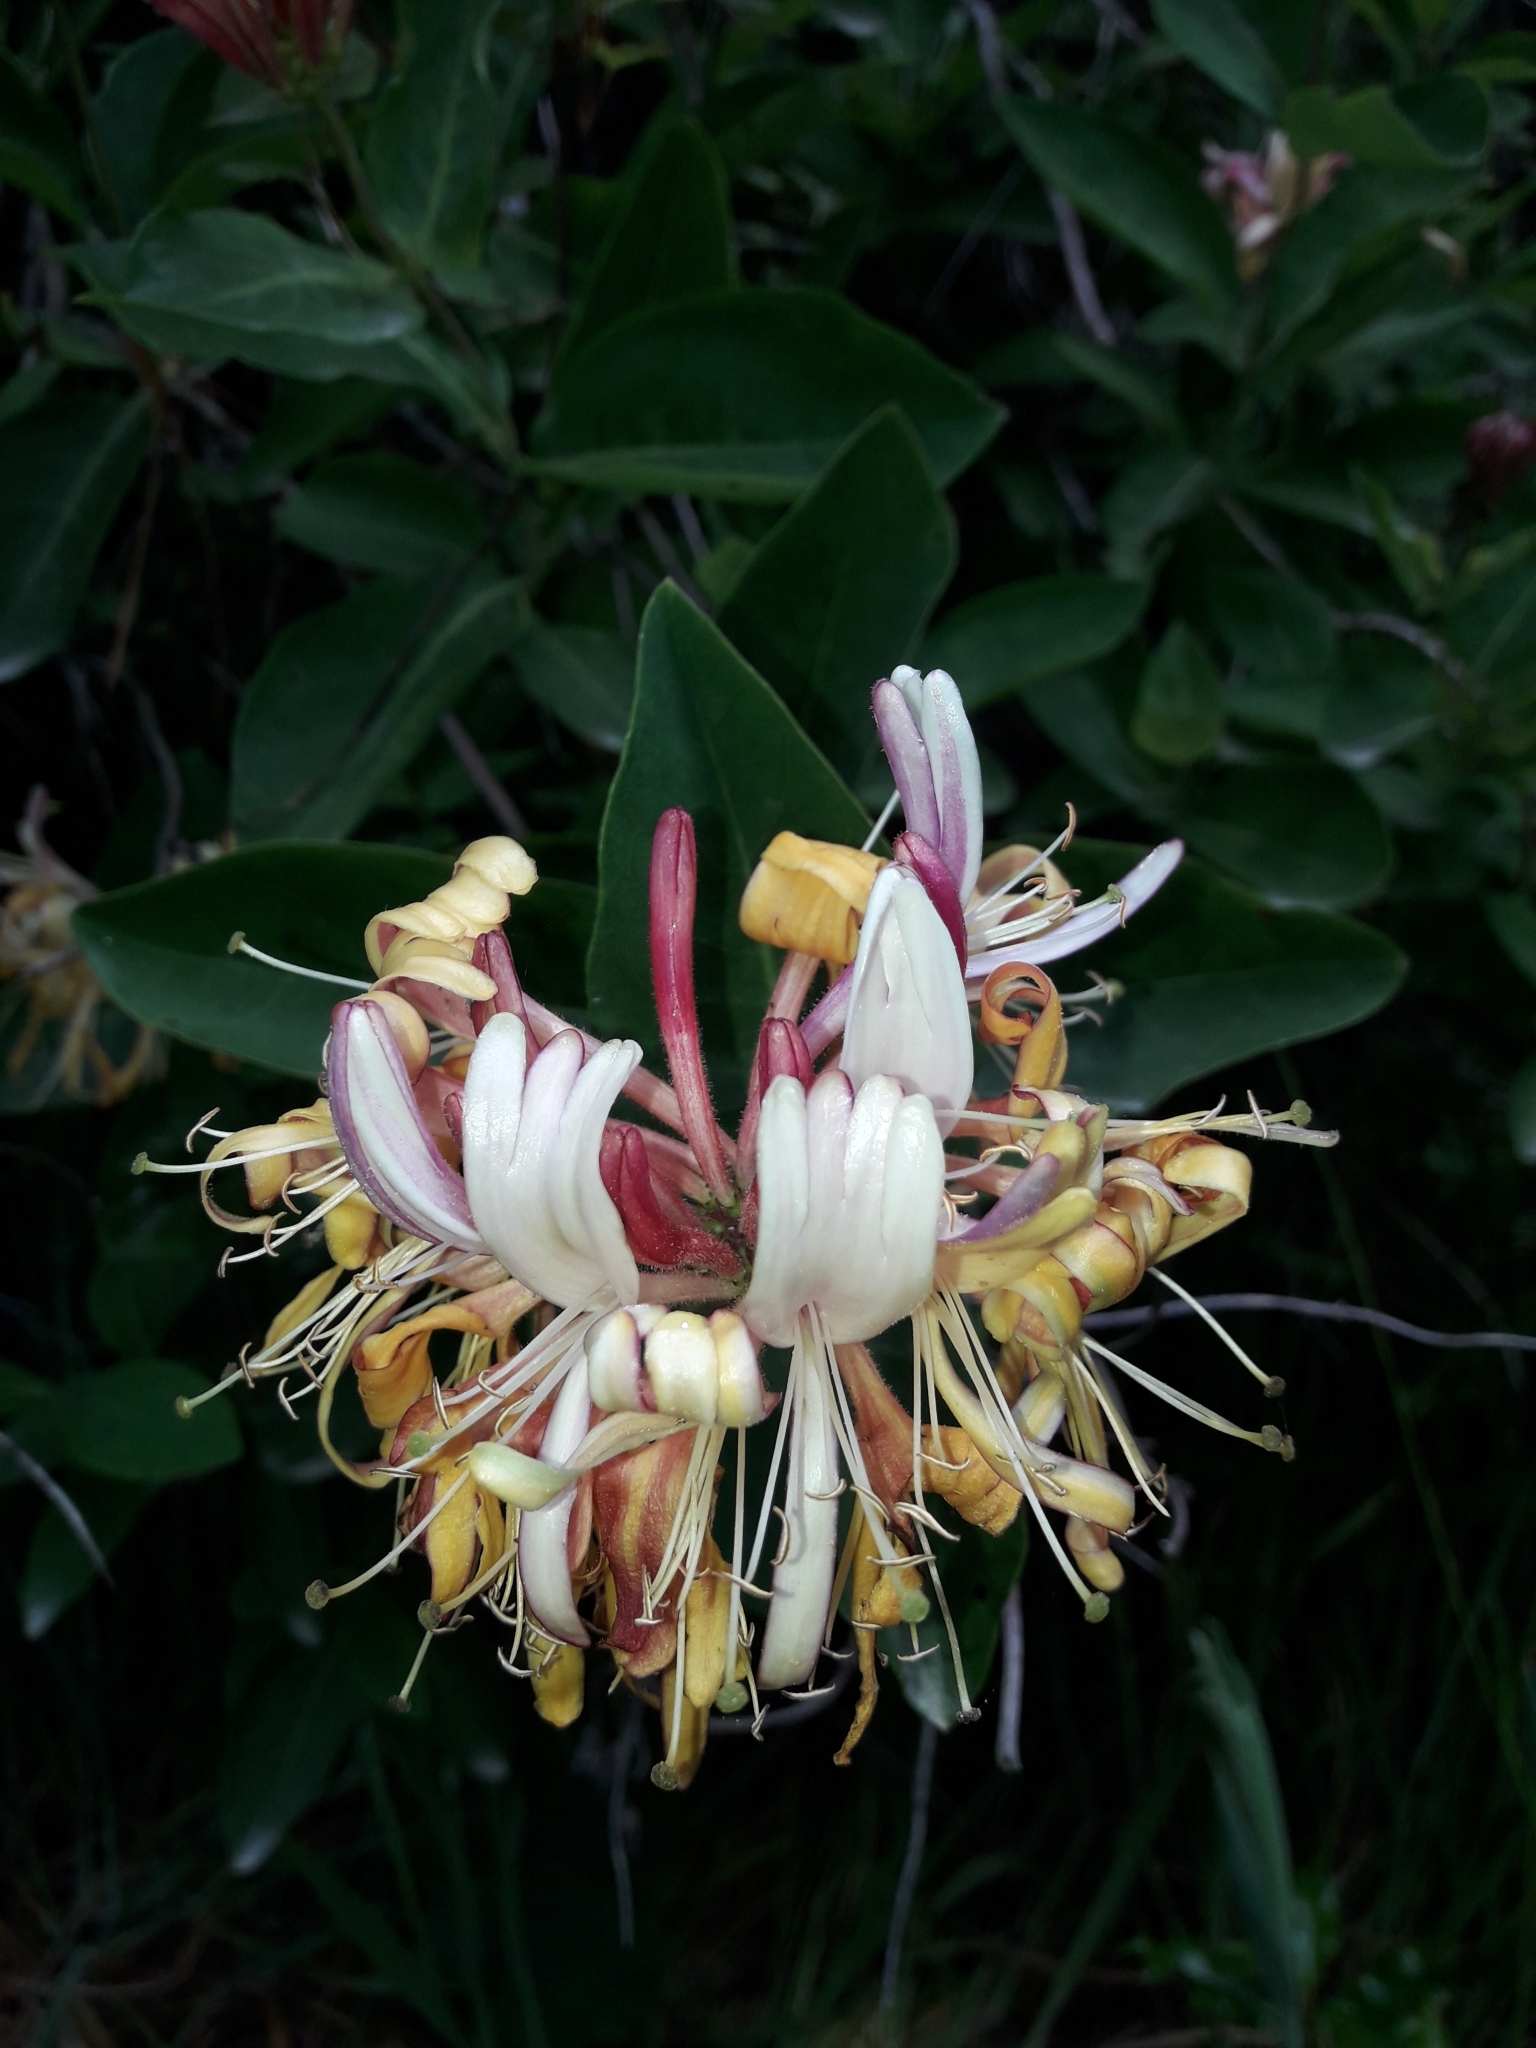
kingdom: Plantae
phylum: Tracheophyta
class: Magnoliopsida
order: Dipsacales
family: Caprifoliaceae
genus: Lonicera
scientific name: Lonicera periclymenum
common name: European honeysuckle
